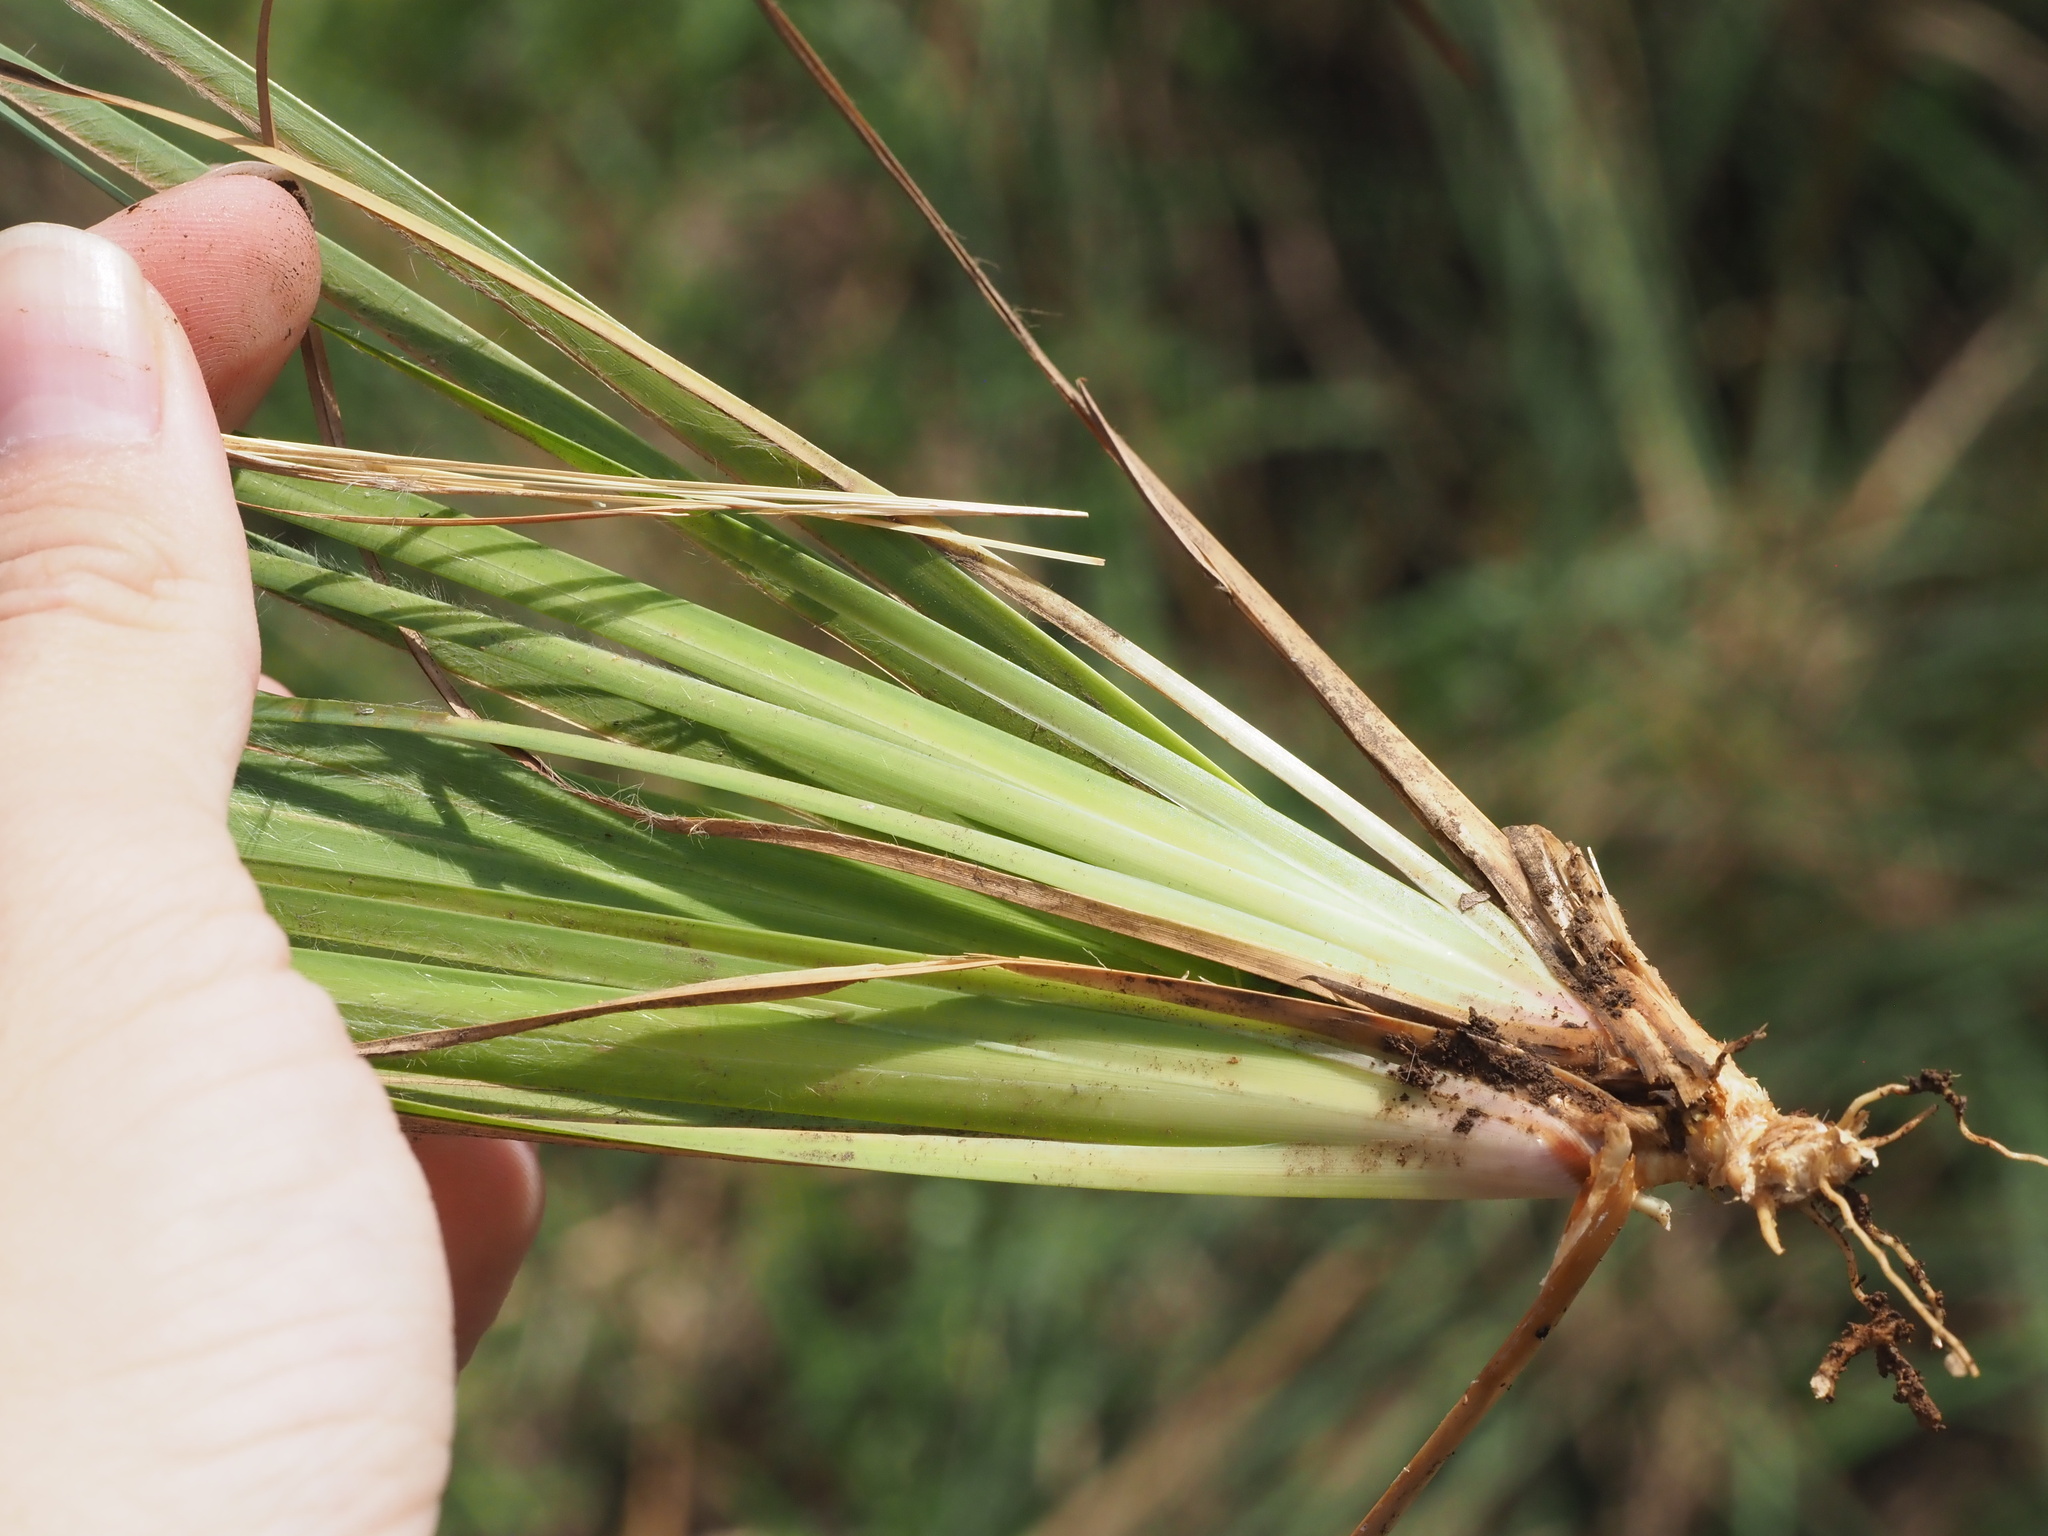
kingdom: Plantae
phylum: Tracheophyta
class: Liliopsida
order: Poales
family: Poaceae
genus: Andropogon
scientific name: Andropogon virginicus
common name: Broomsedge bluestem
